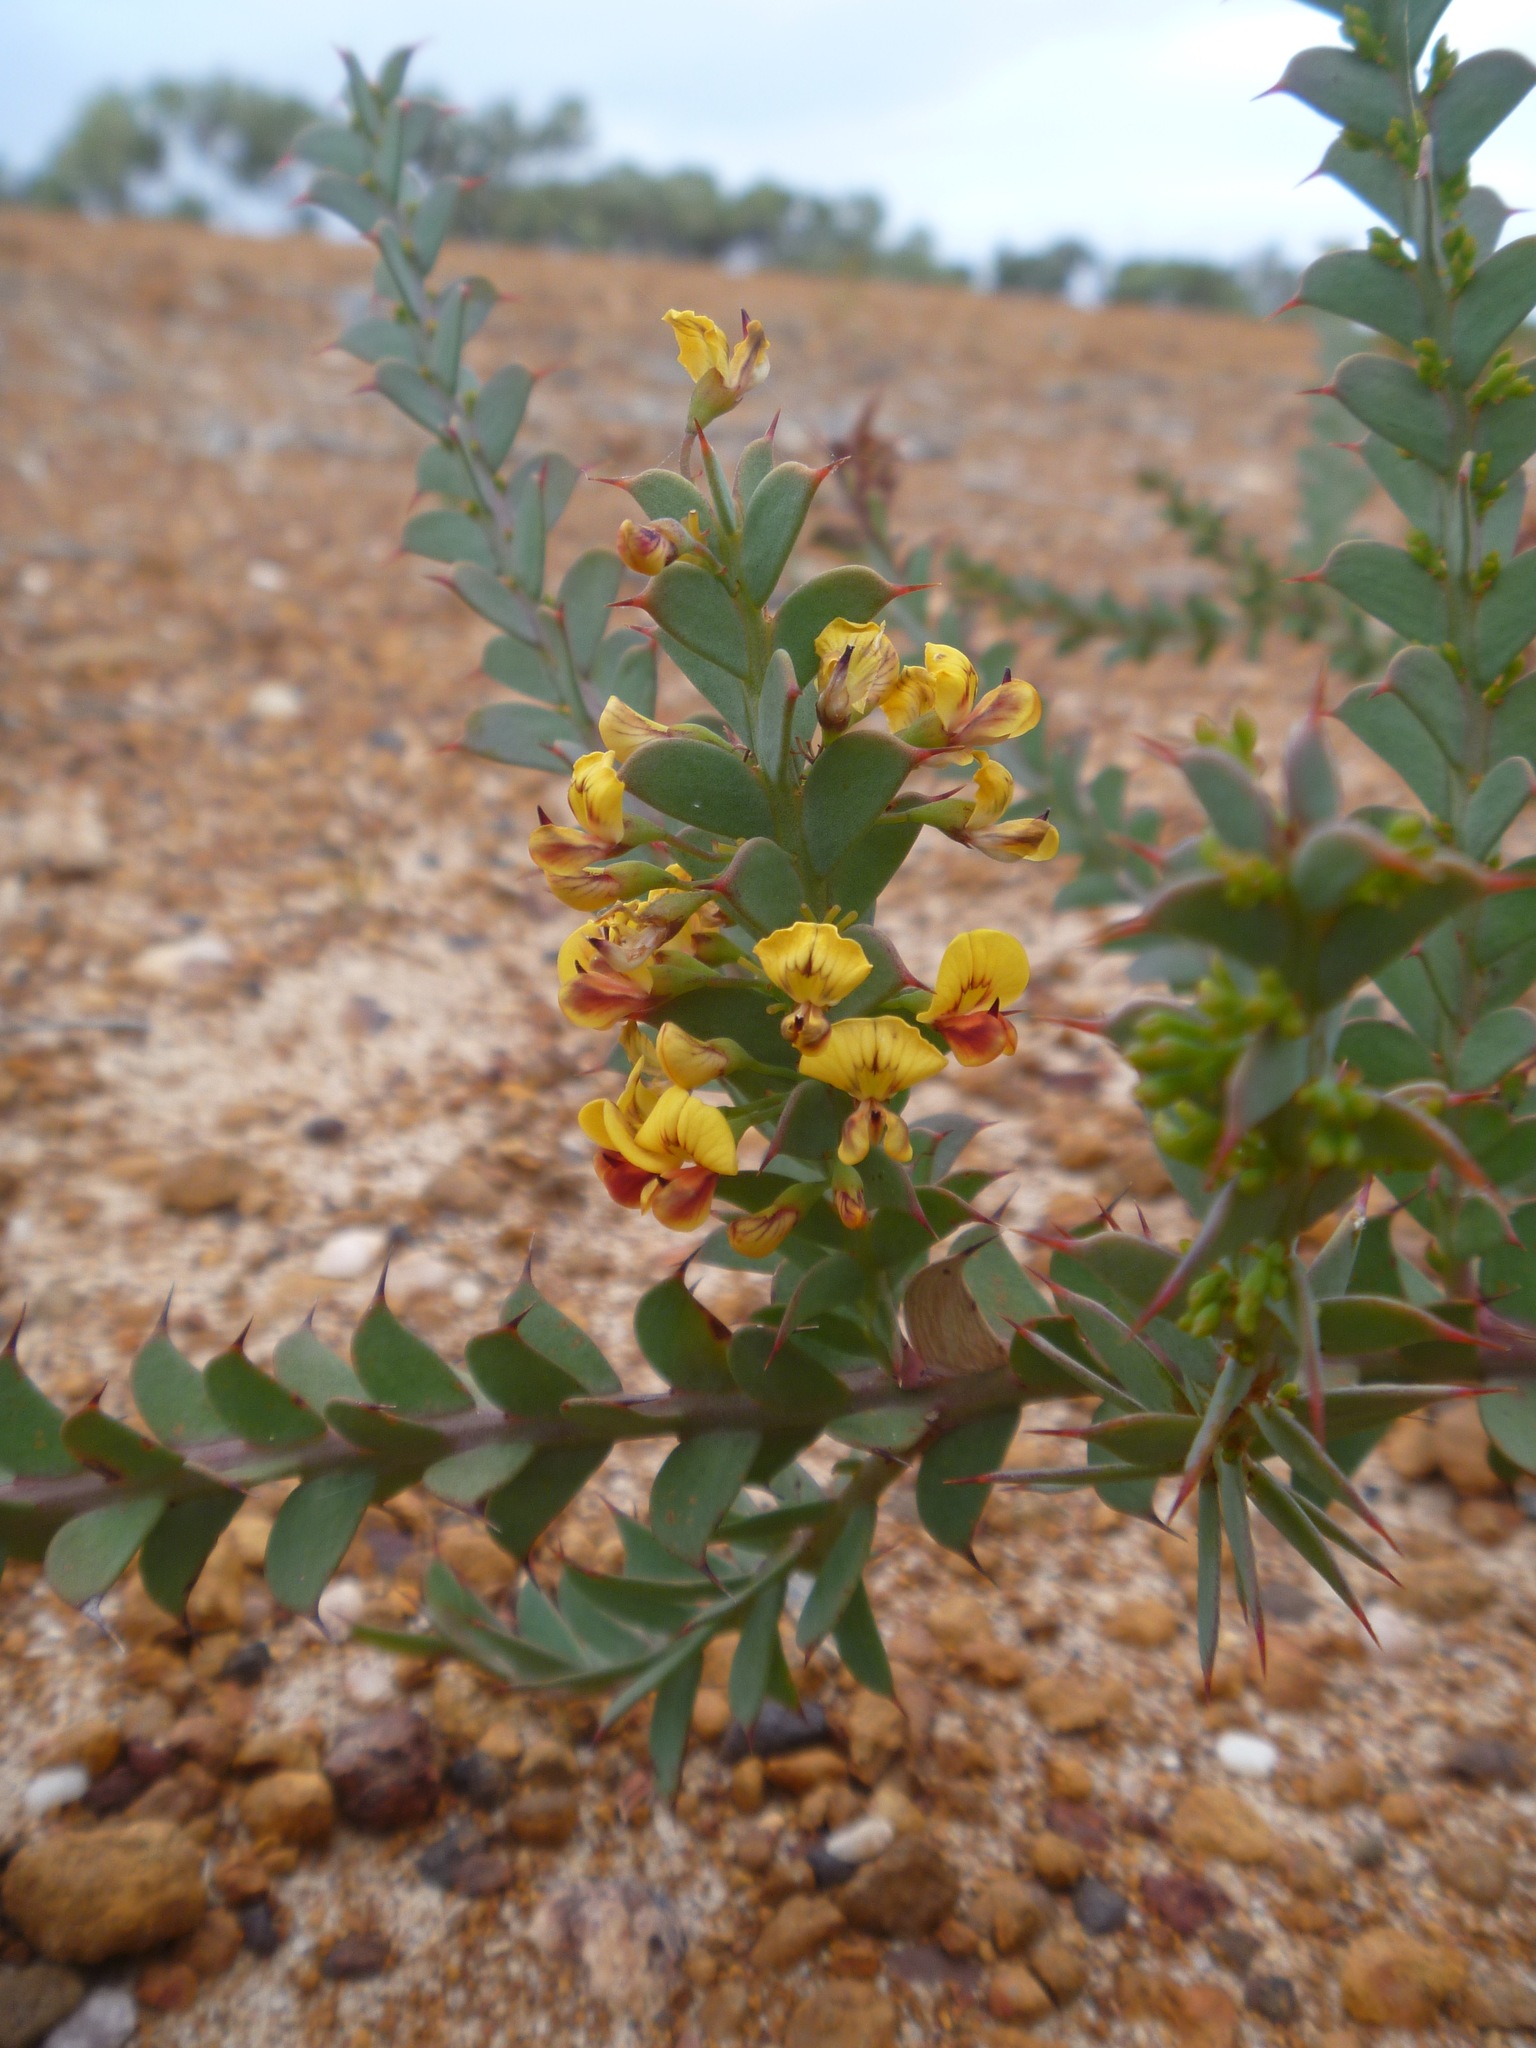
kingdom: Plantae
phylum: Tracheophyta
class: Magnoliopsida
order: Fabales
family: Fabaceae
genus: Daviesia
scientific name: Daviesia striata
